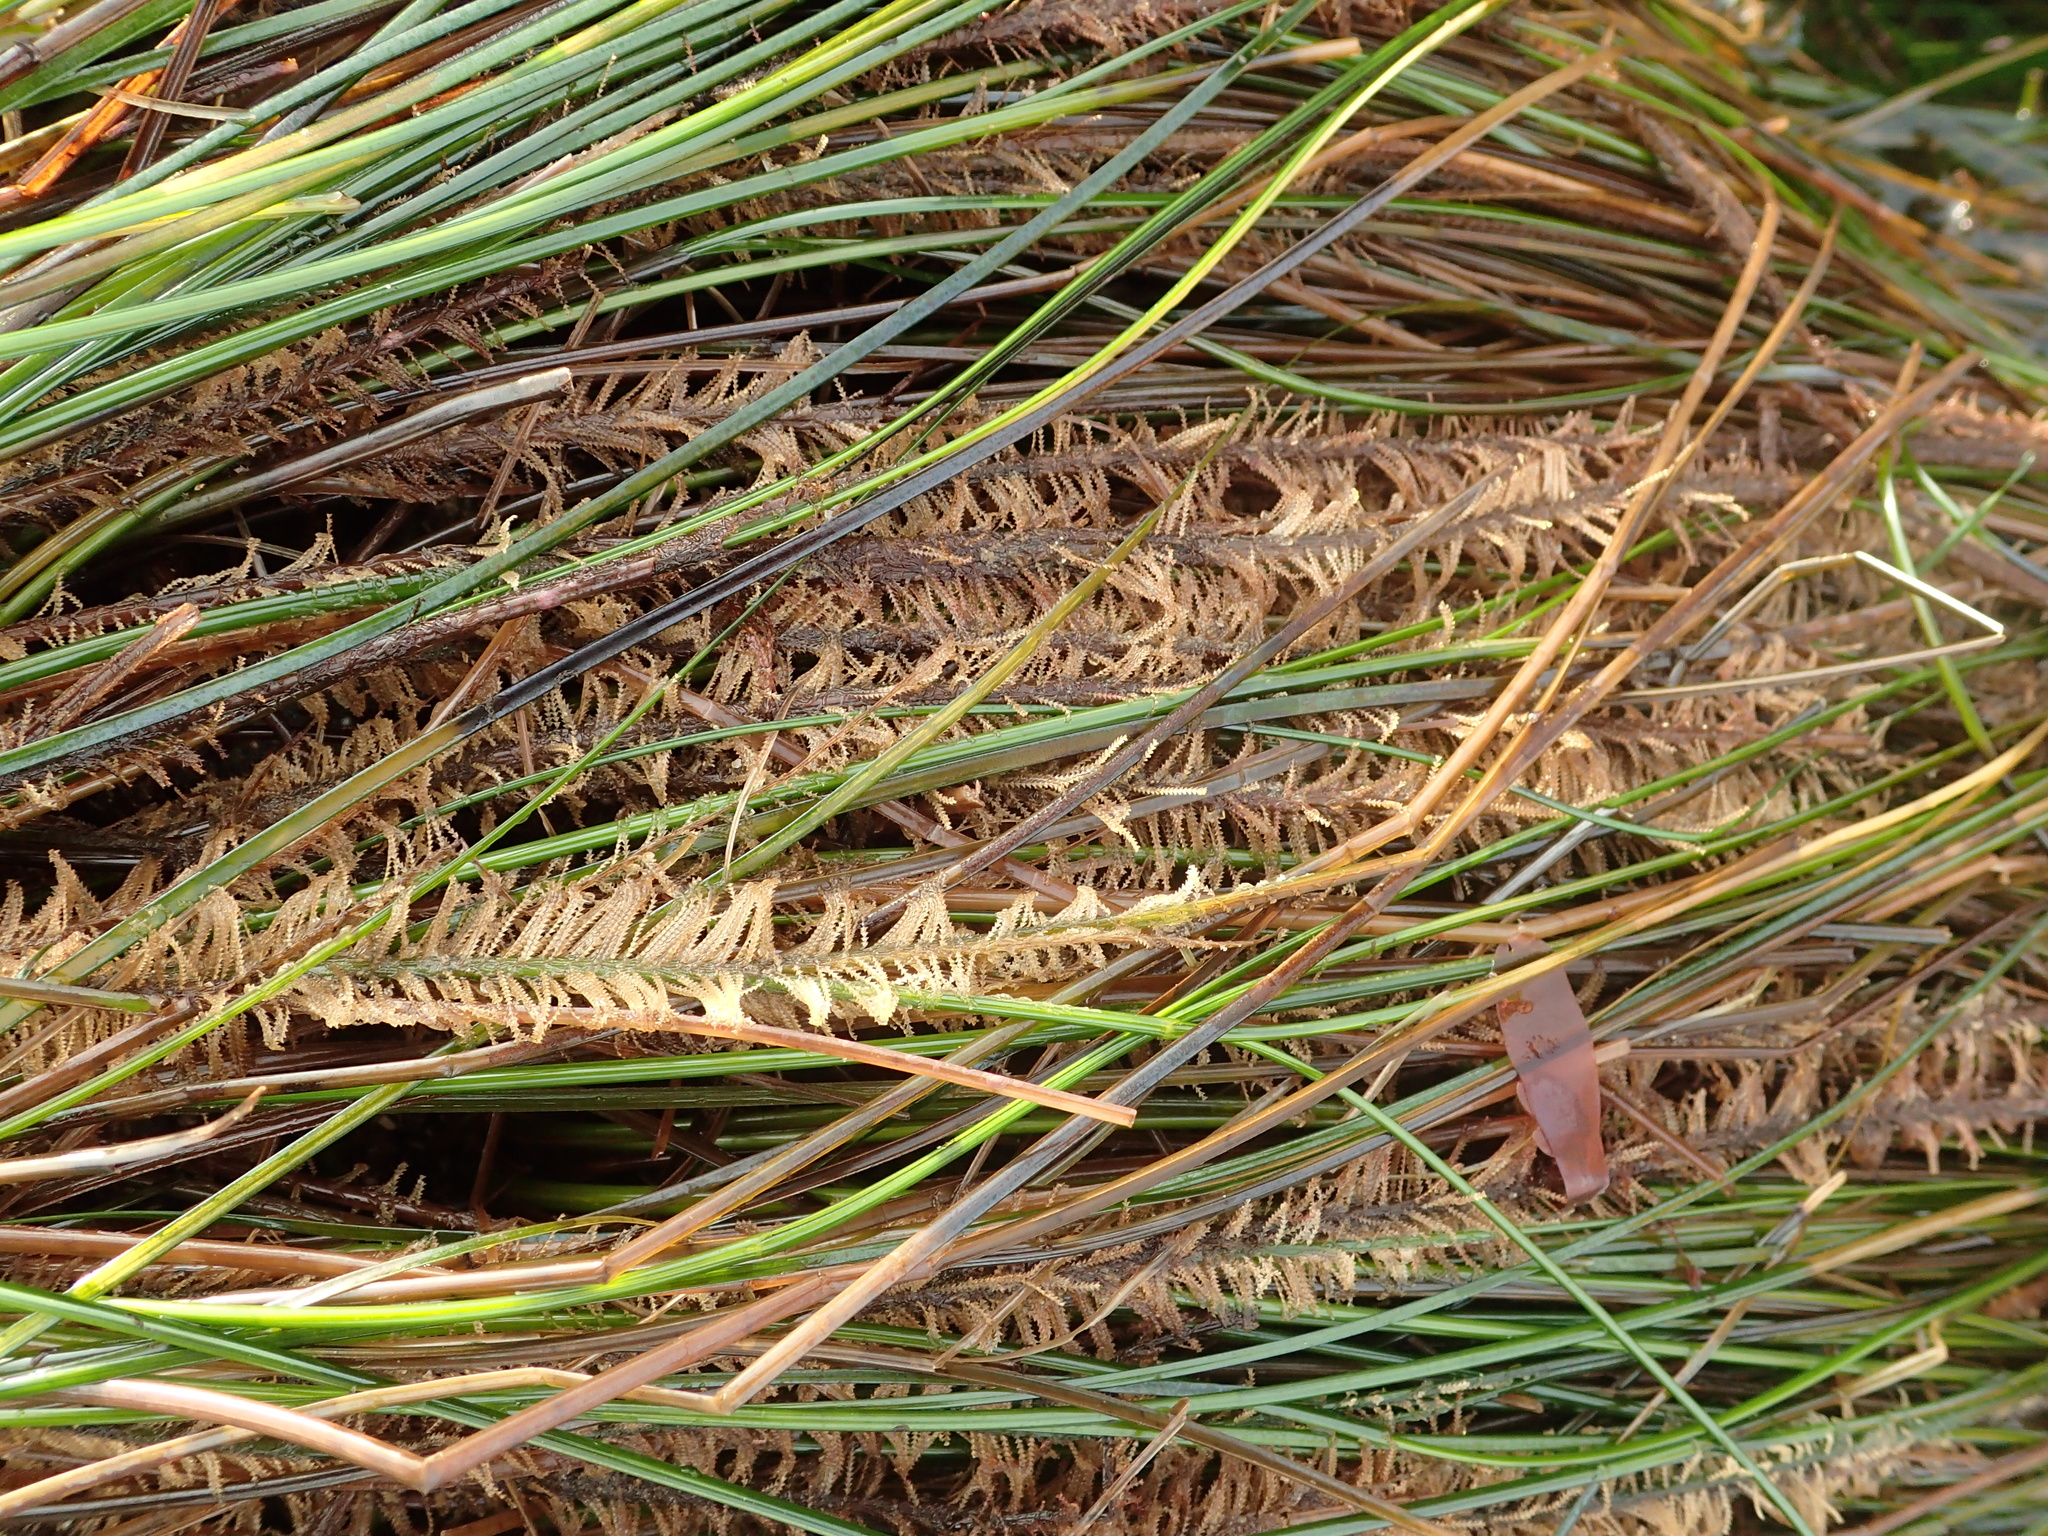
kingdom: Plantae
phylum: Tracheophyta
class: Liliopsida
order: Alismatales
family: Zosteraceae
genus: Phyllospadix
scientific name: Phyllospadix torreyi
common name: Surfgrass
